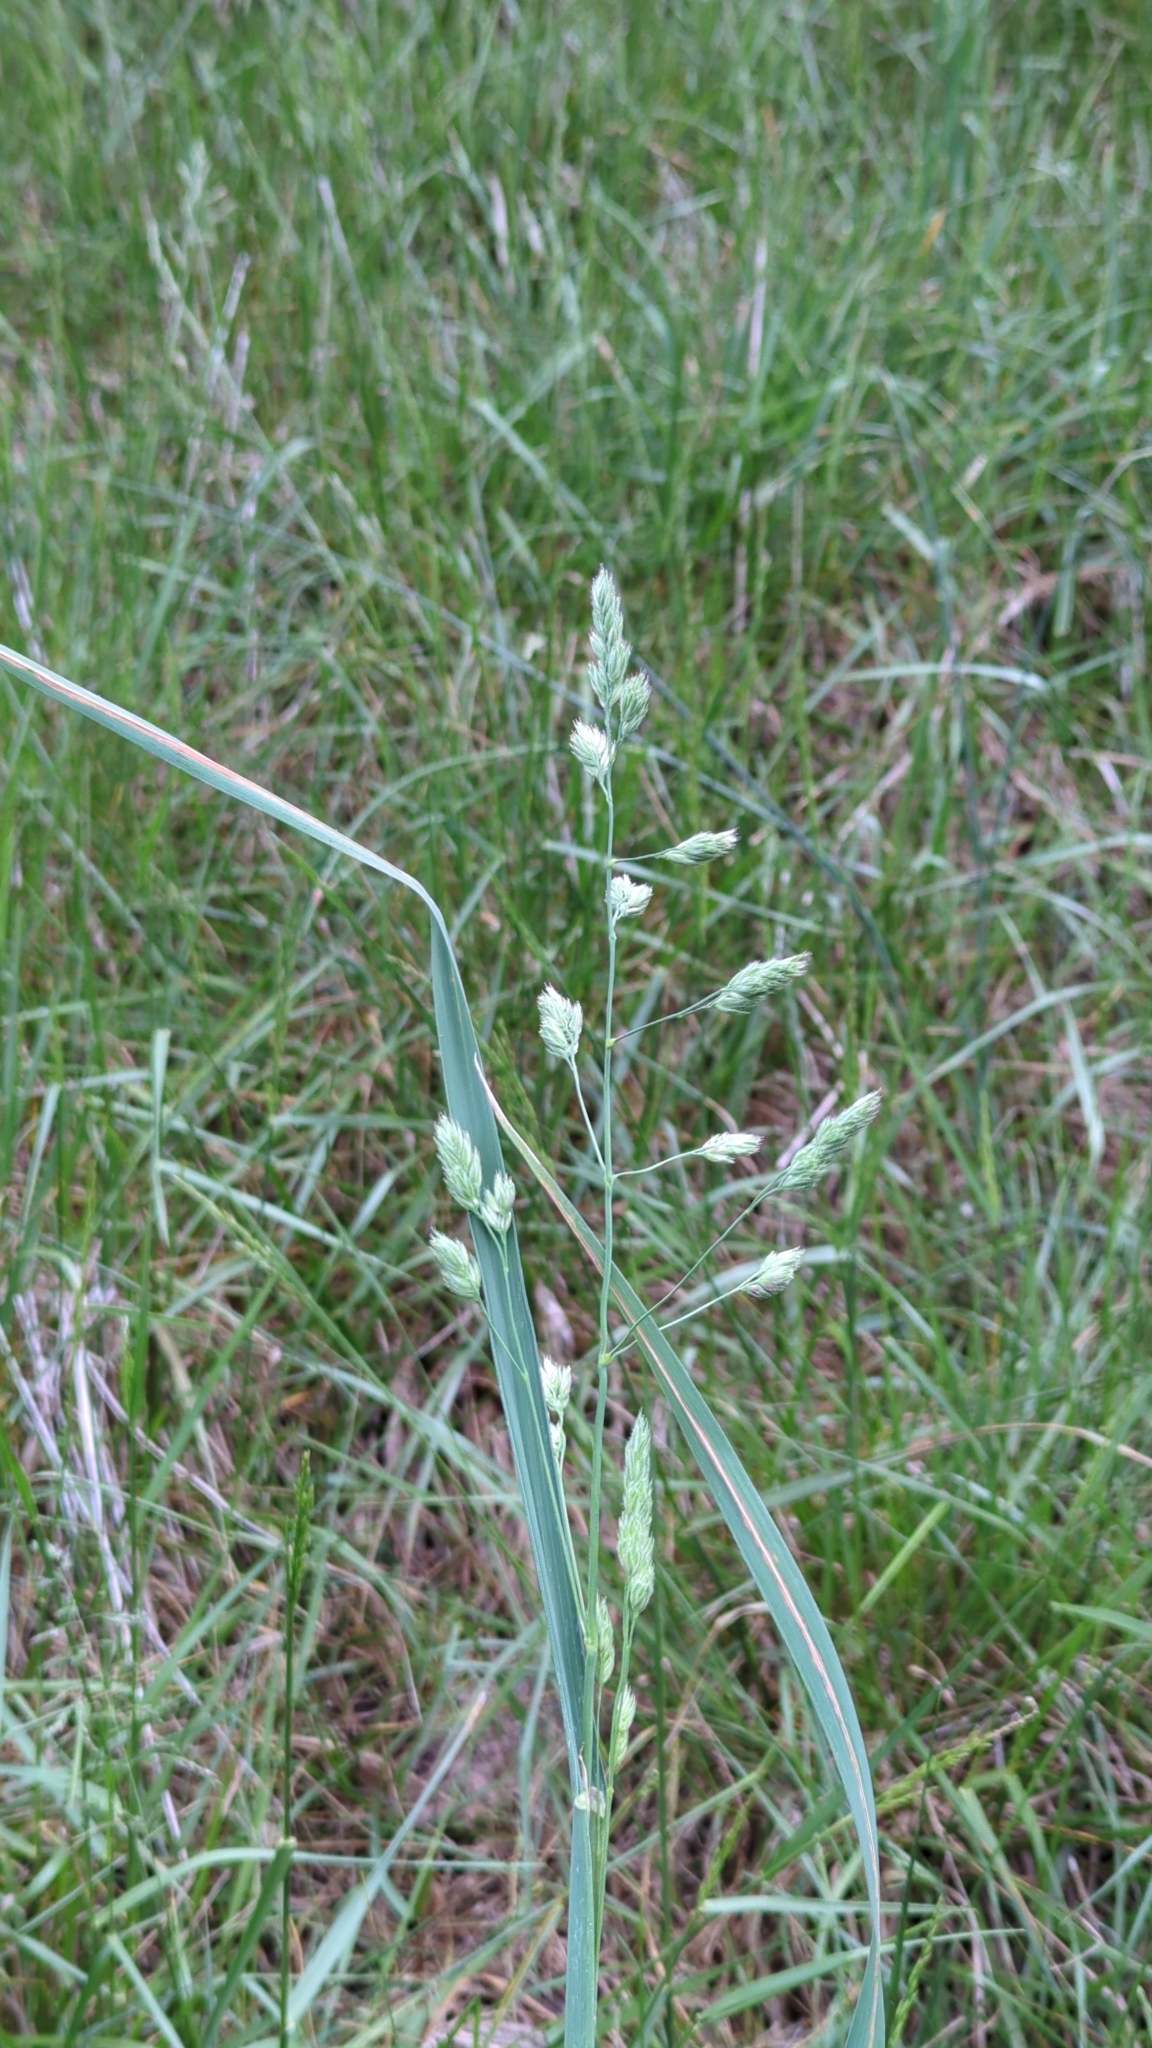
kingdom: Plantae
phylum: Tracheophyta
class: Liliopsida
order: Poales
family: Poaceae
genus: Dactylis
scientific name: Dactylis glomerata
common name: Orchardgrass
